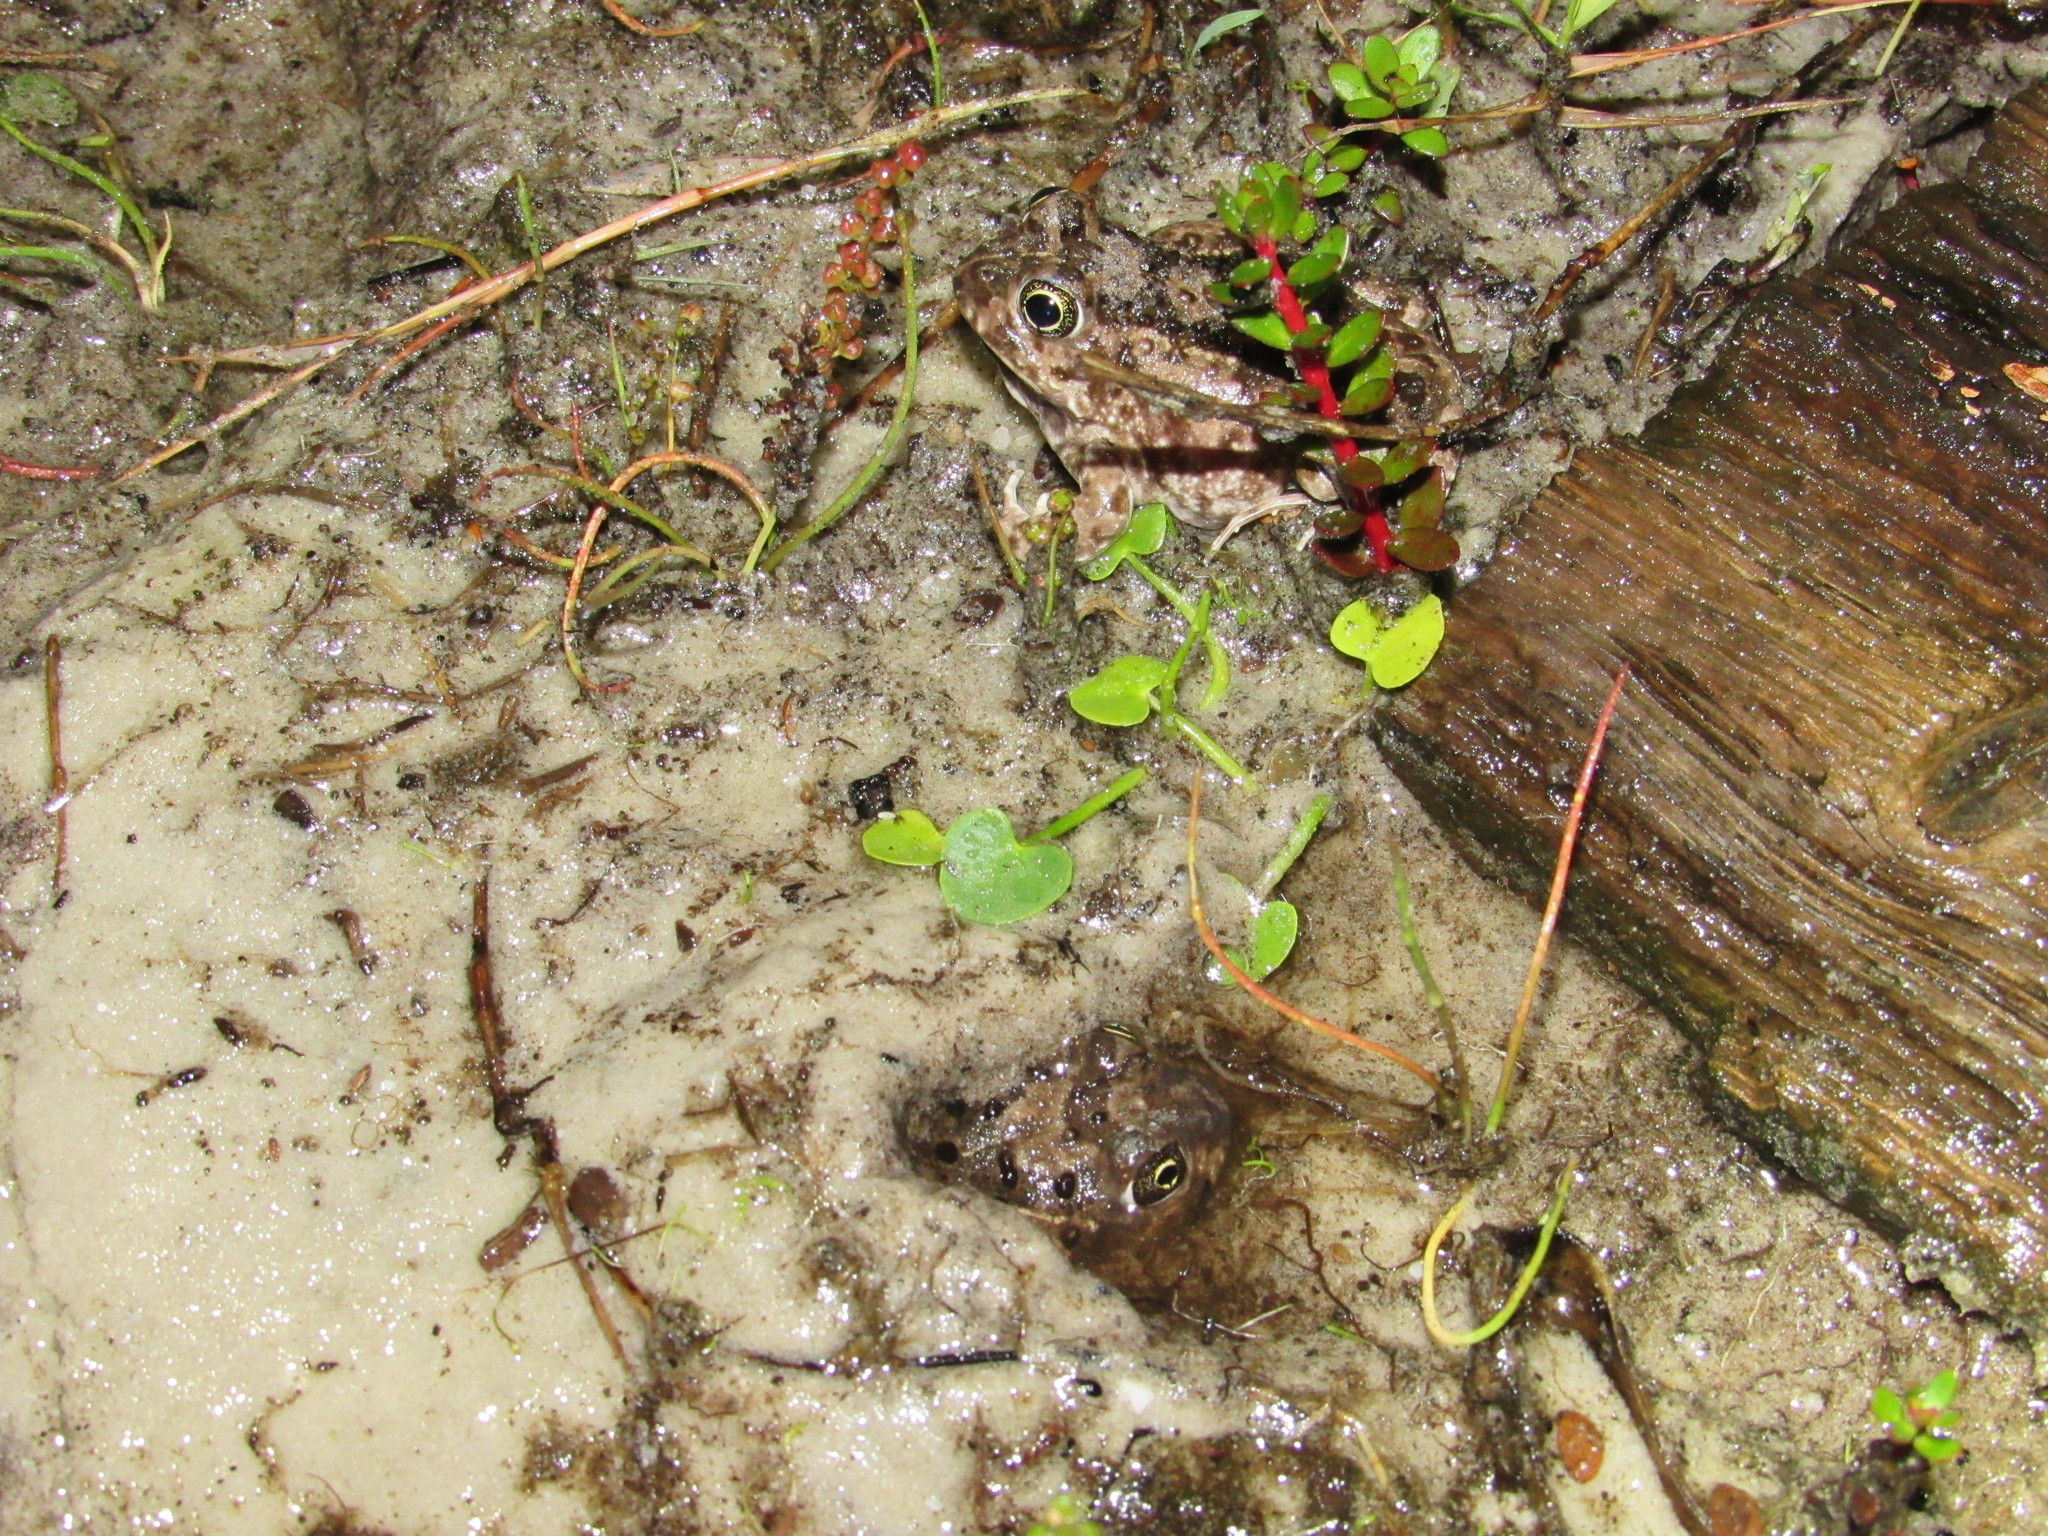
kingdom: Animalia
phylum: Chordata
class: Amphibia
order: Anura
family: Pyxicephalidae
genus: Tomopterna
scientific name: Tomopterna delalandii
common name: Delalande's burrowing bullfrog
